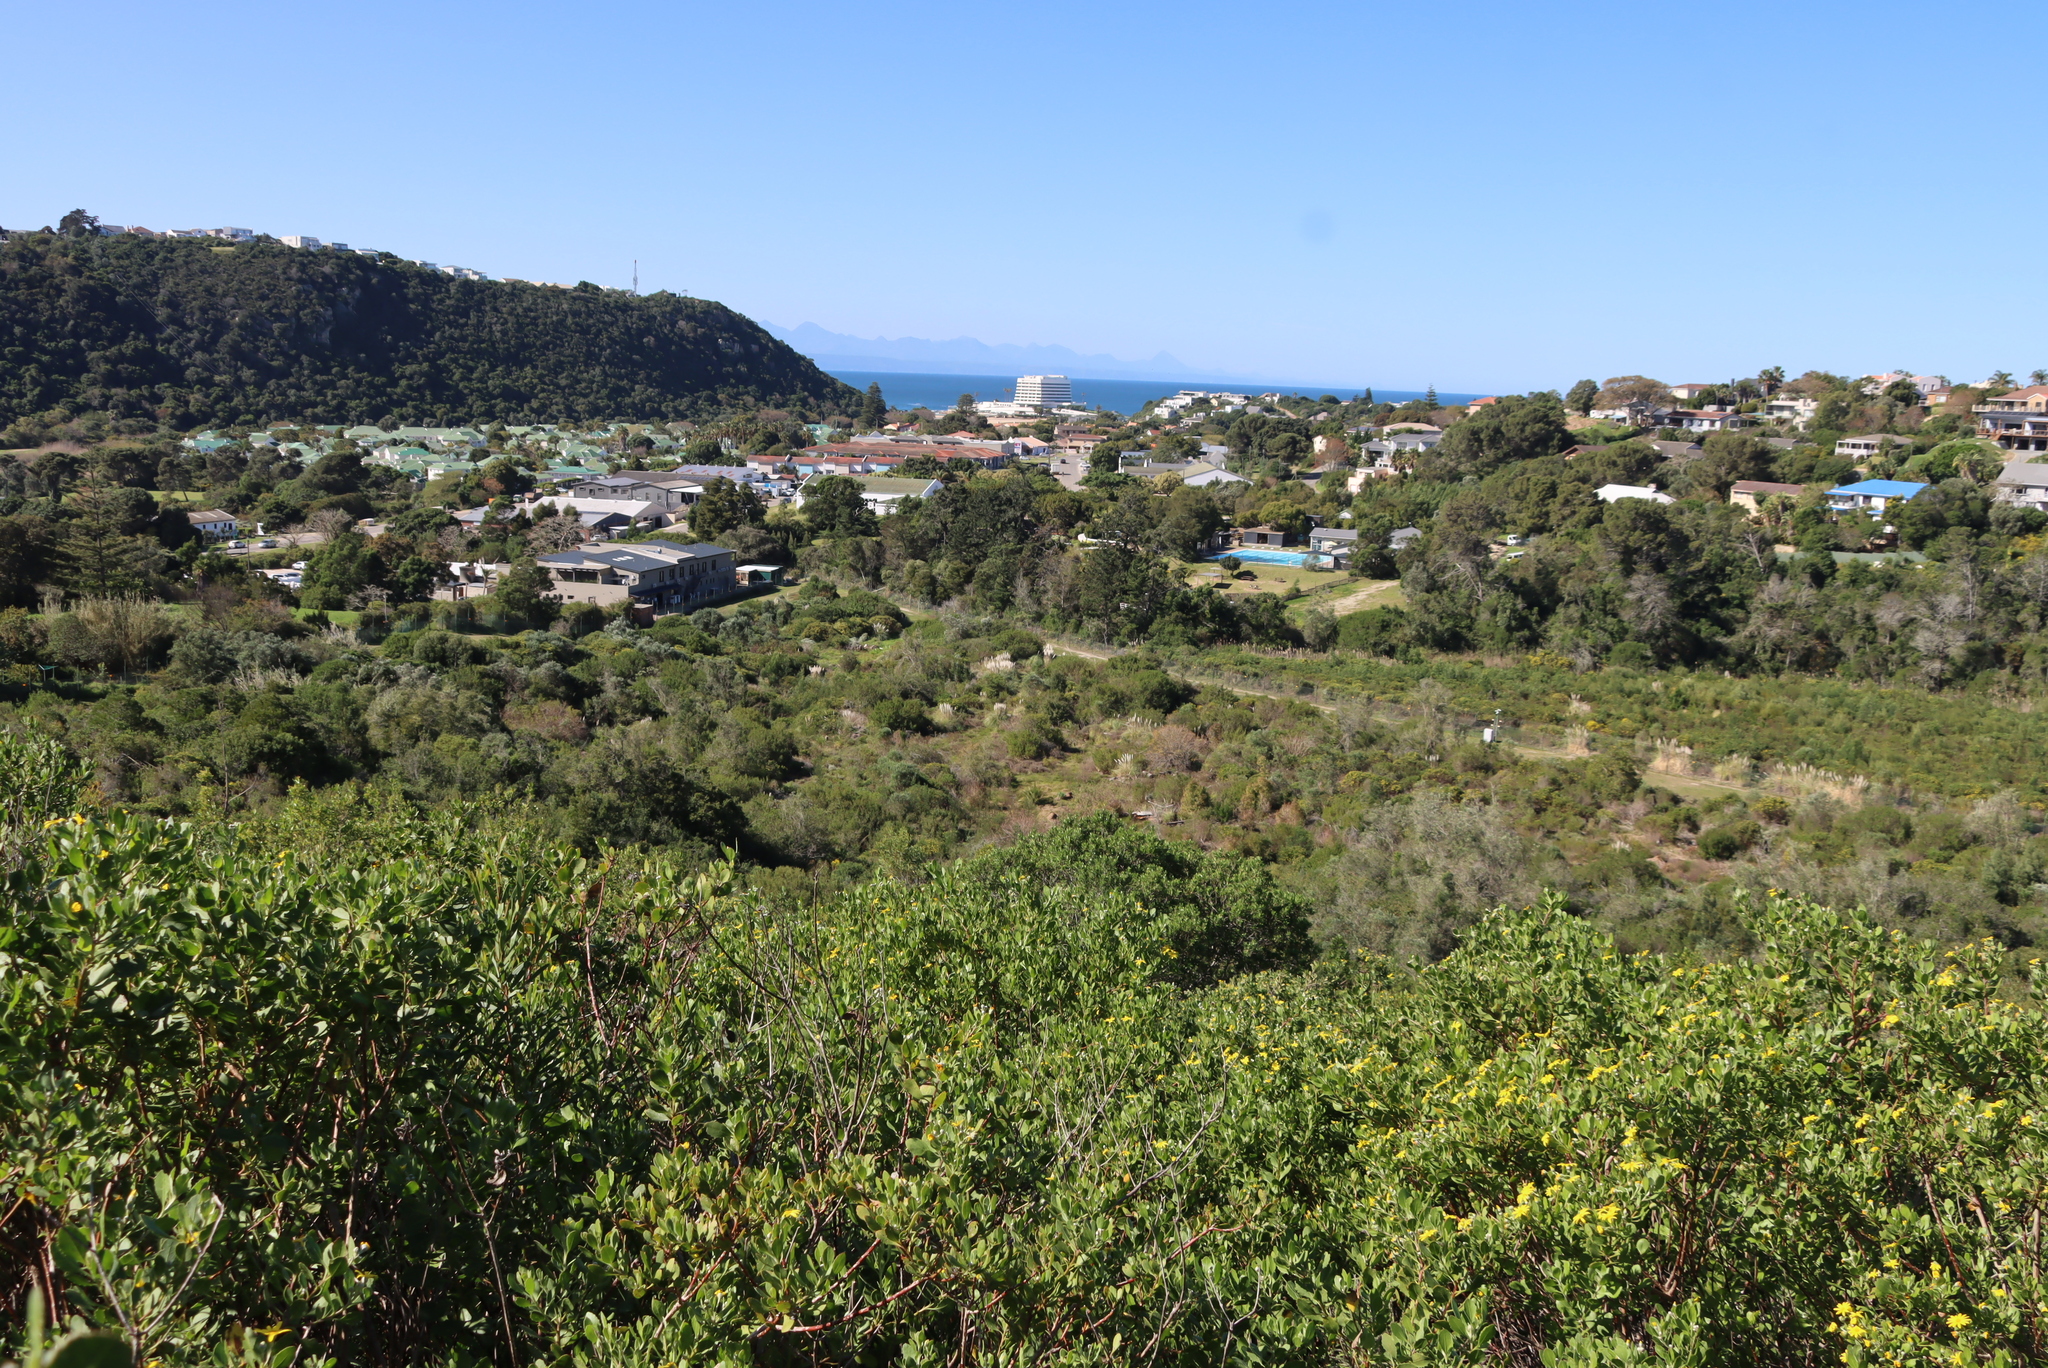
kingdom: Plantae
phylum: Tracheophyta
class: Liliopsida
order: Poales
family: Poaceae
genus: Cortaderia
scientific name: Cortaderia selloana
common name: Uruguayan pampas grass
